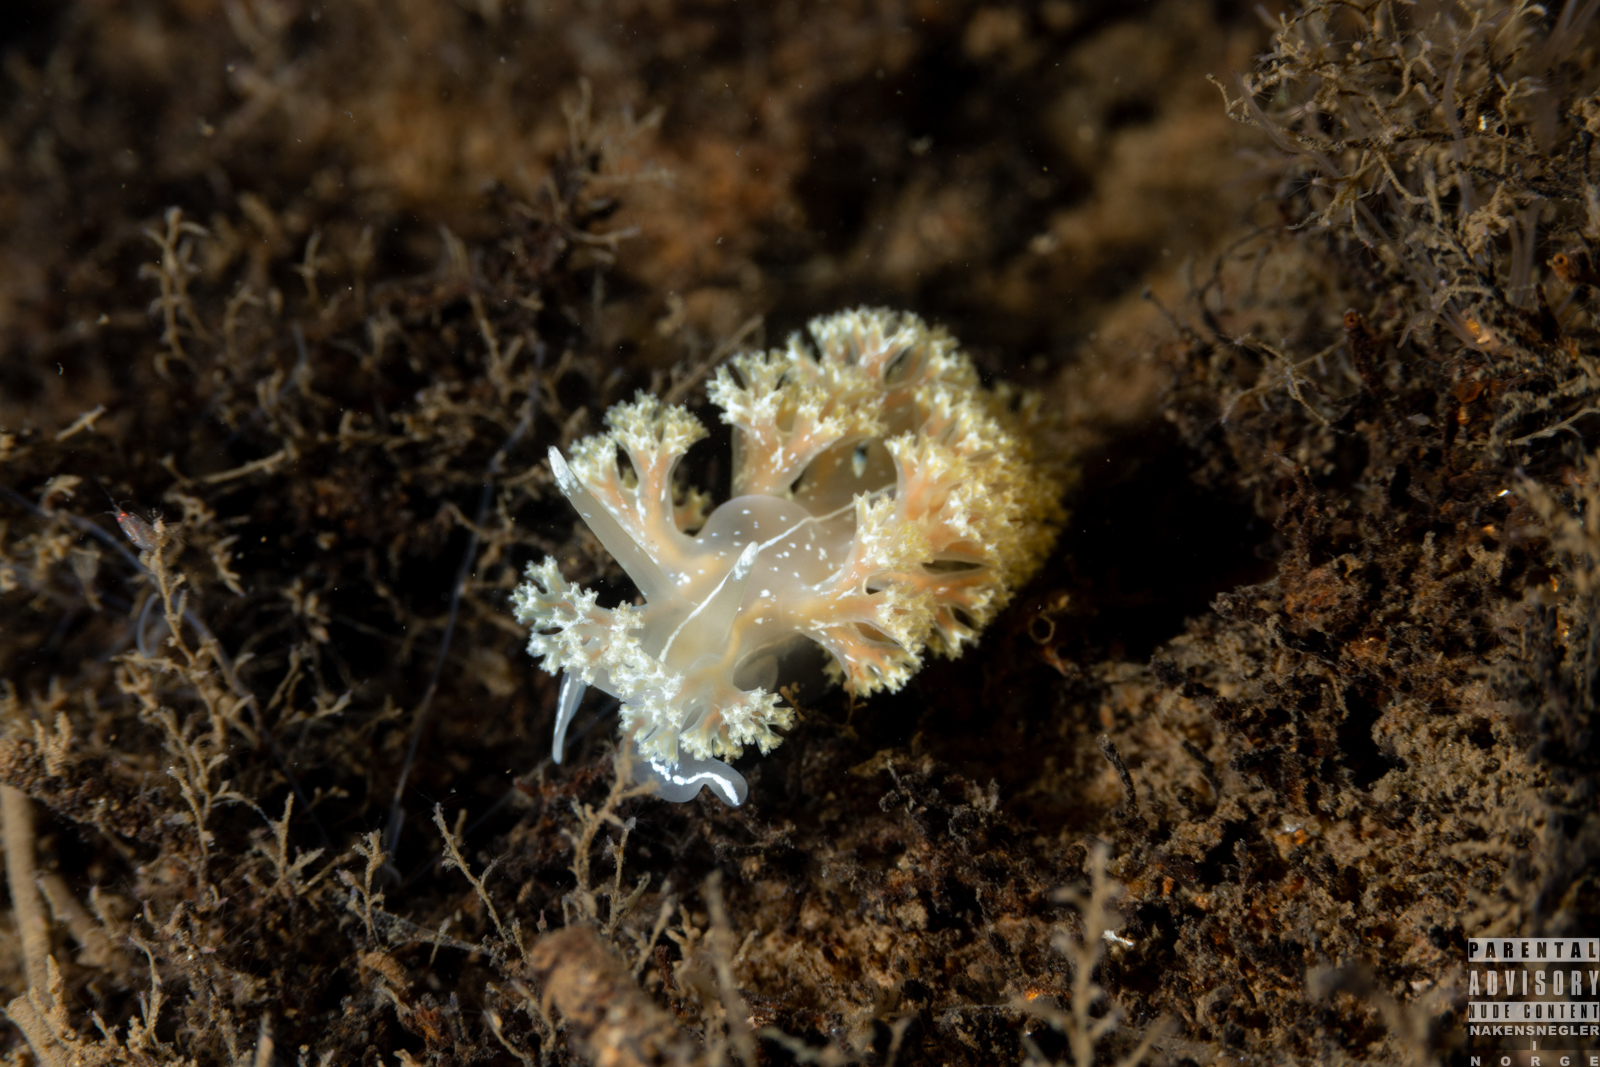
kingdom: Animalia
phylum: Mollusca
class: Gastropoda
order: Nudibranchia
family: Heroidae
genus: Hero
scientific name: Hero formosa
